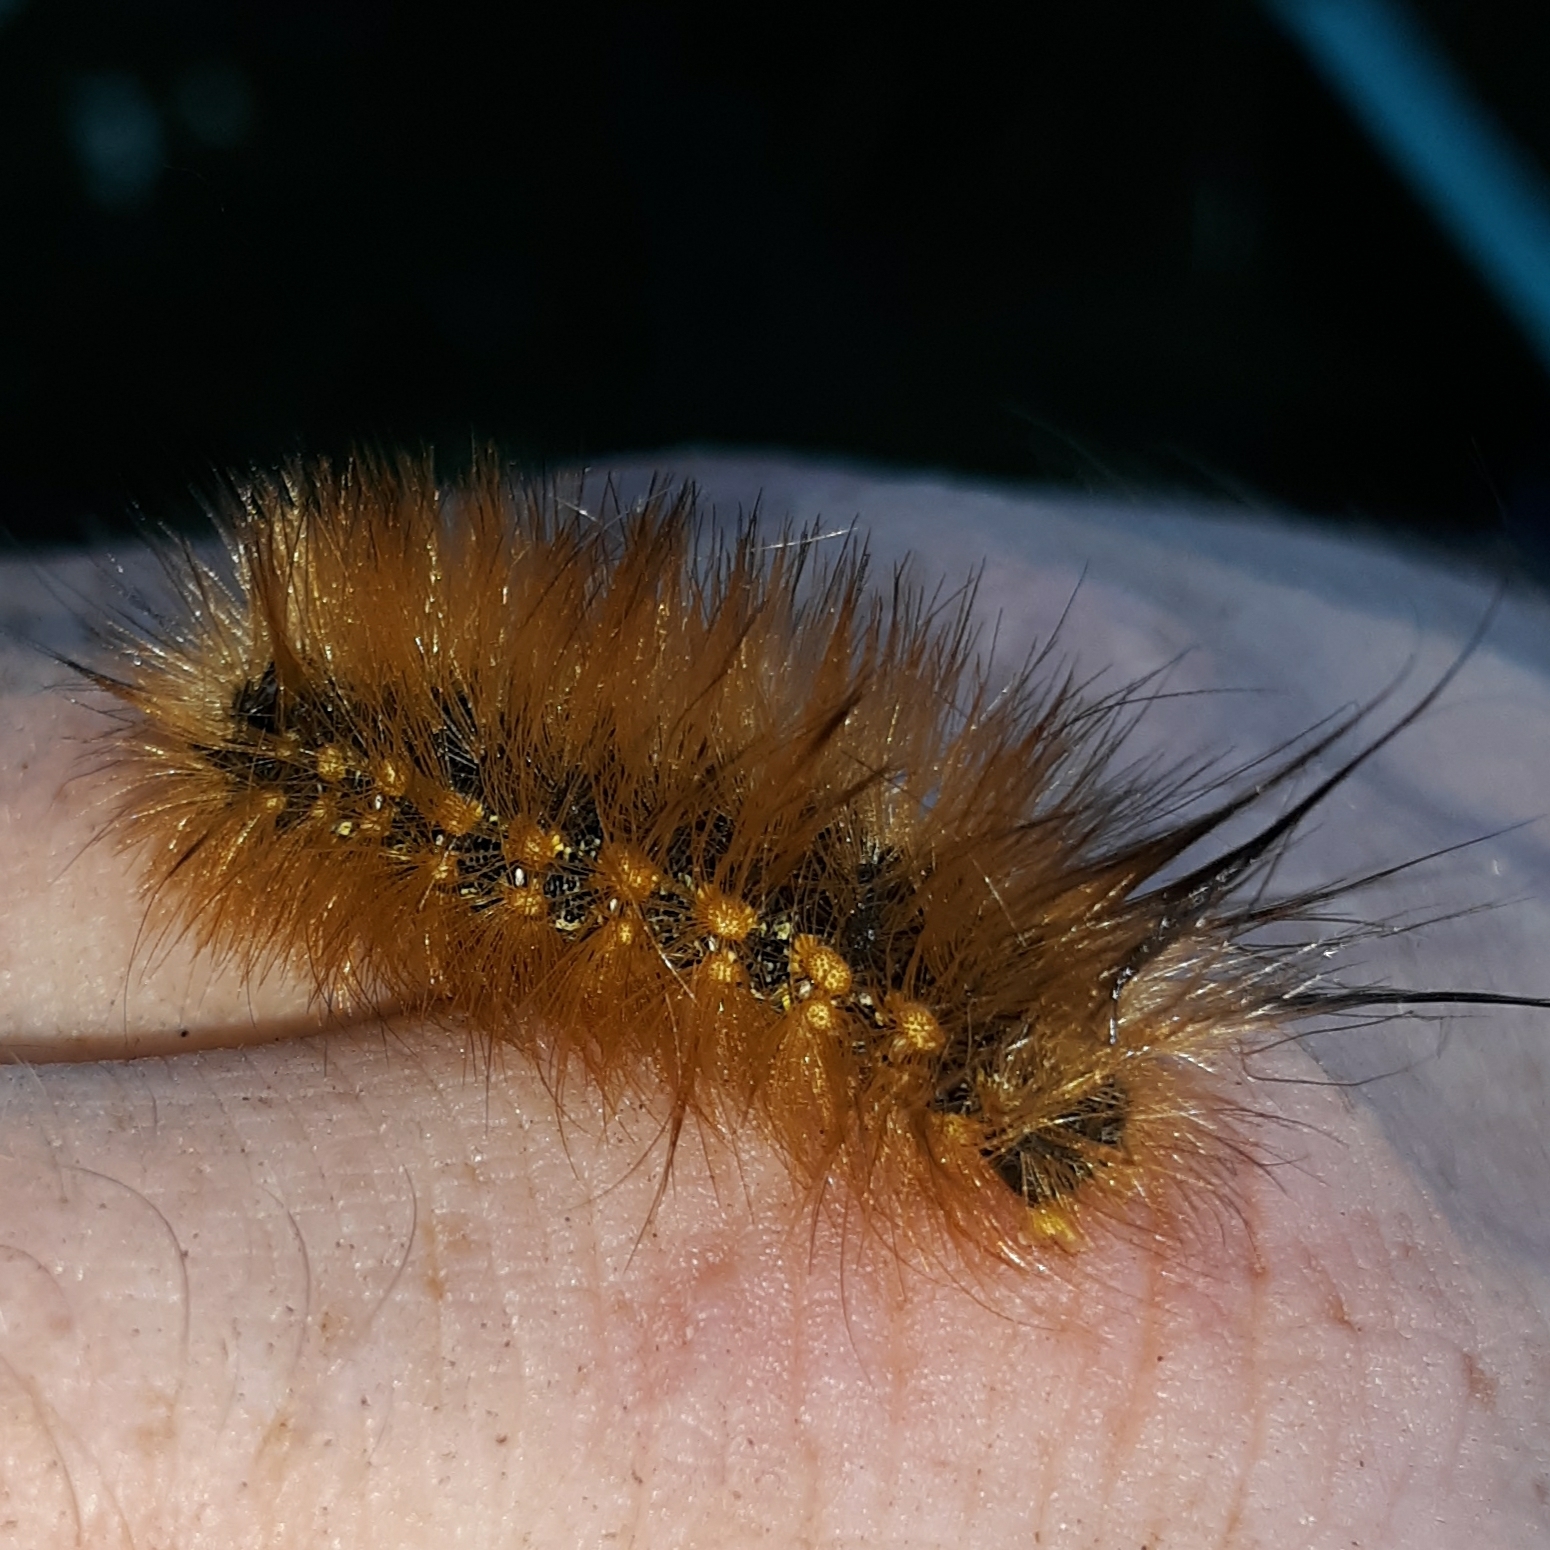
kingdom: Animalia
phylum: Arthropoda
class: Insecta
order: Lepidoptera
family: Erebidae
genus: Estigmene
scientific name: Estigmene acrea
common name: Salt marsh moth
